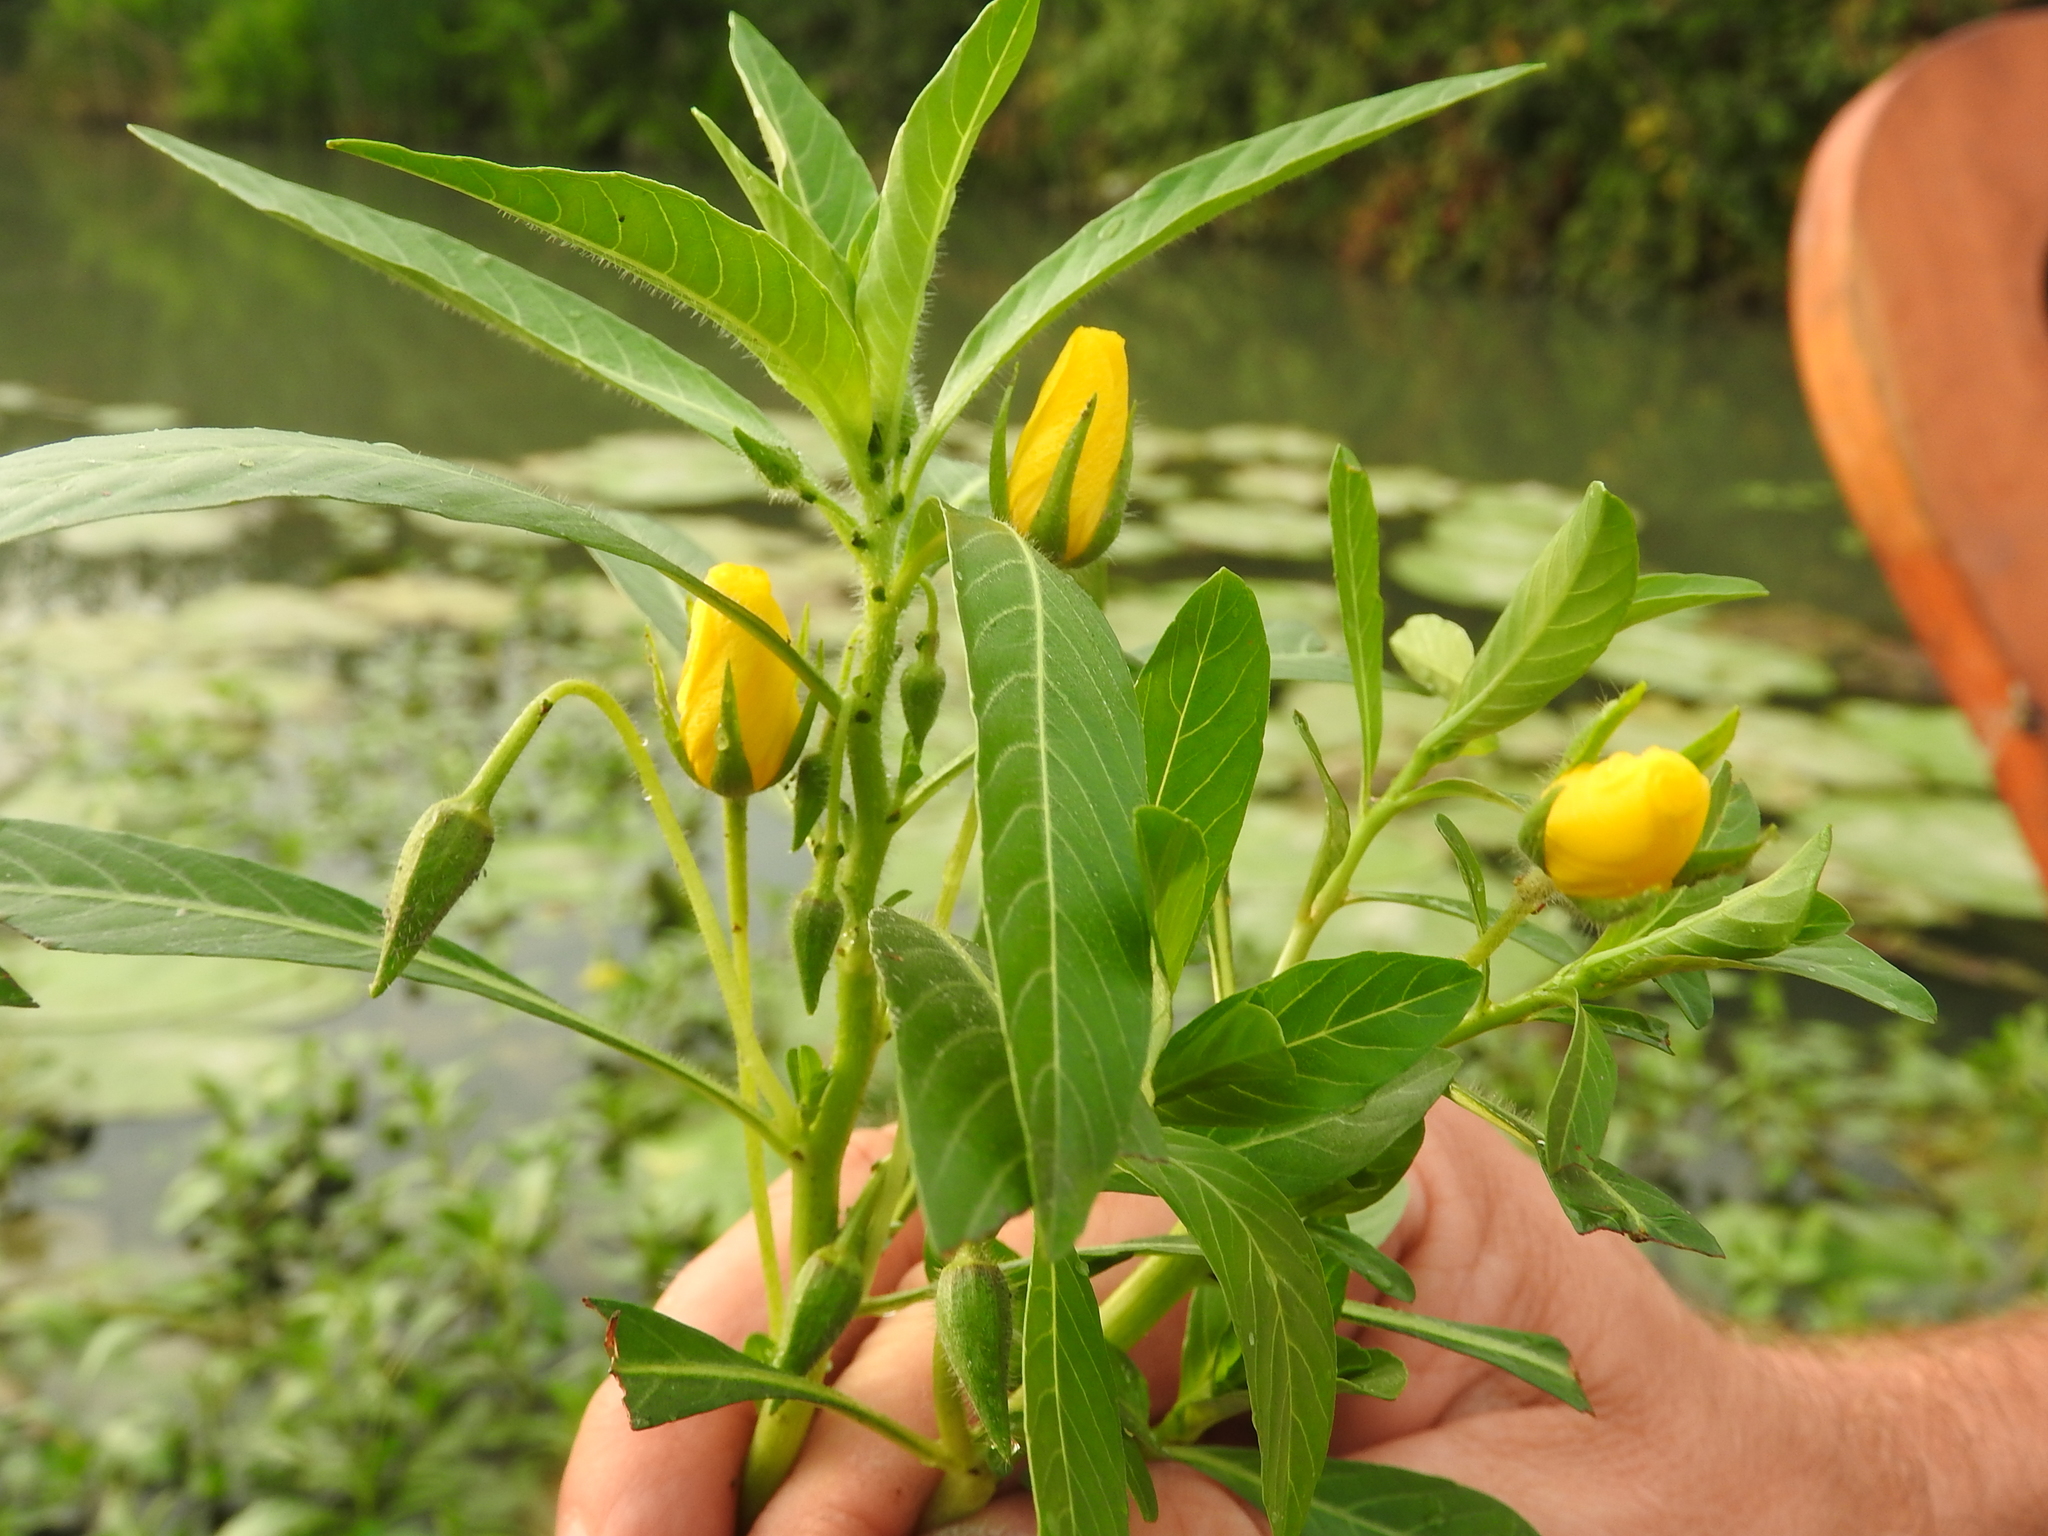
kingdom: Plantae
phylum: Tracheophyta
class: Magnoliopsida
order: Myrtales
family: Onagraceae
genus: Ludwigia
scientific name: Ludwigia hexapetala
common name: Water-primrose
